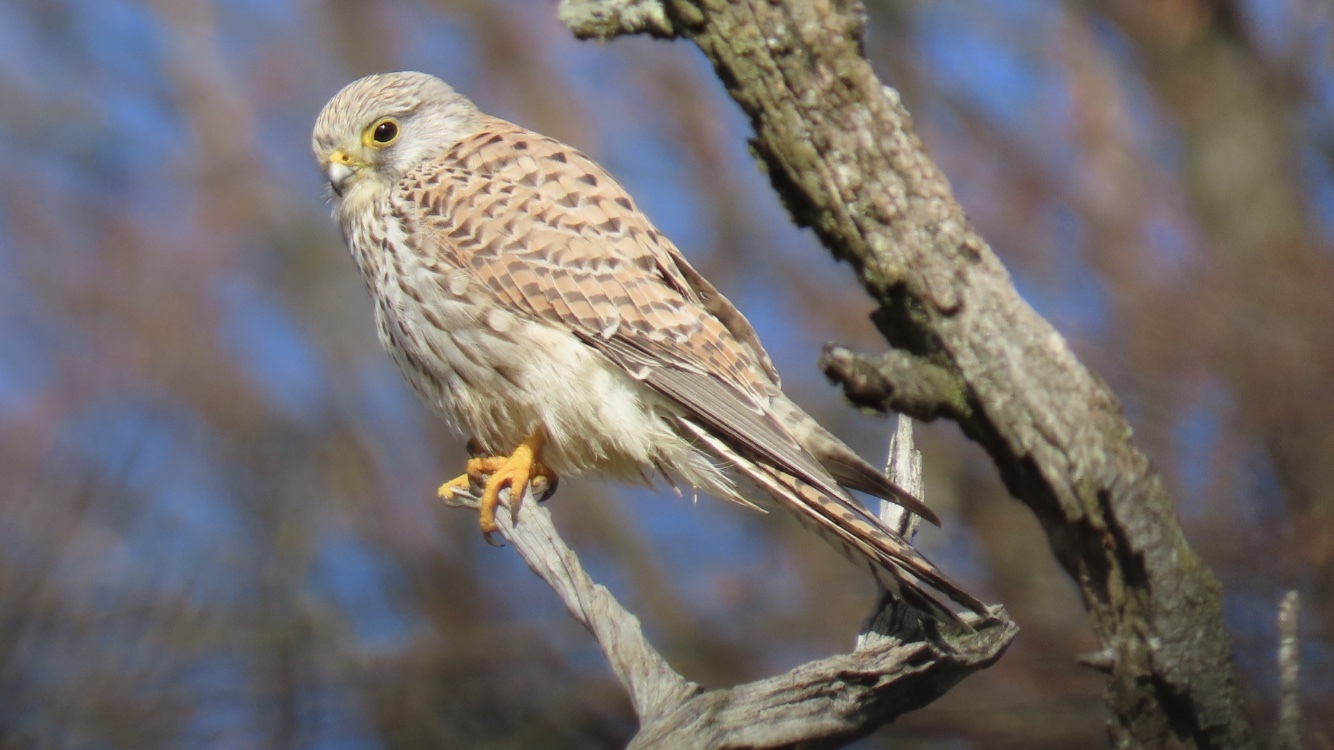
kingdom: Animalia
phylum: Chordata
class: Aves
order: Falconiformes
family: Falconidae
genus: Falco
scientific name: Falco tinnunculus
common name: Common kestrel
